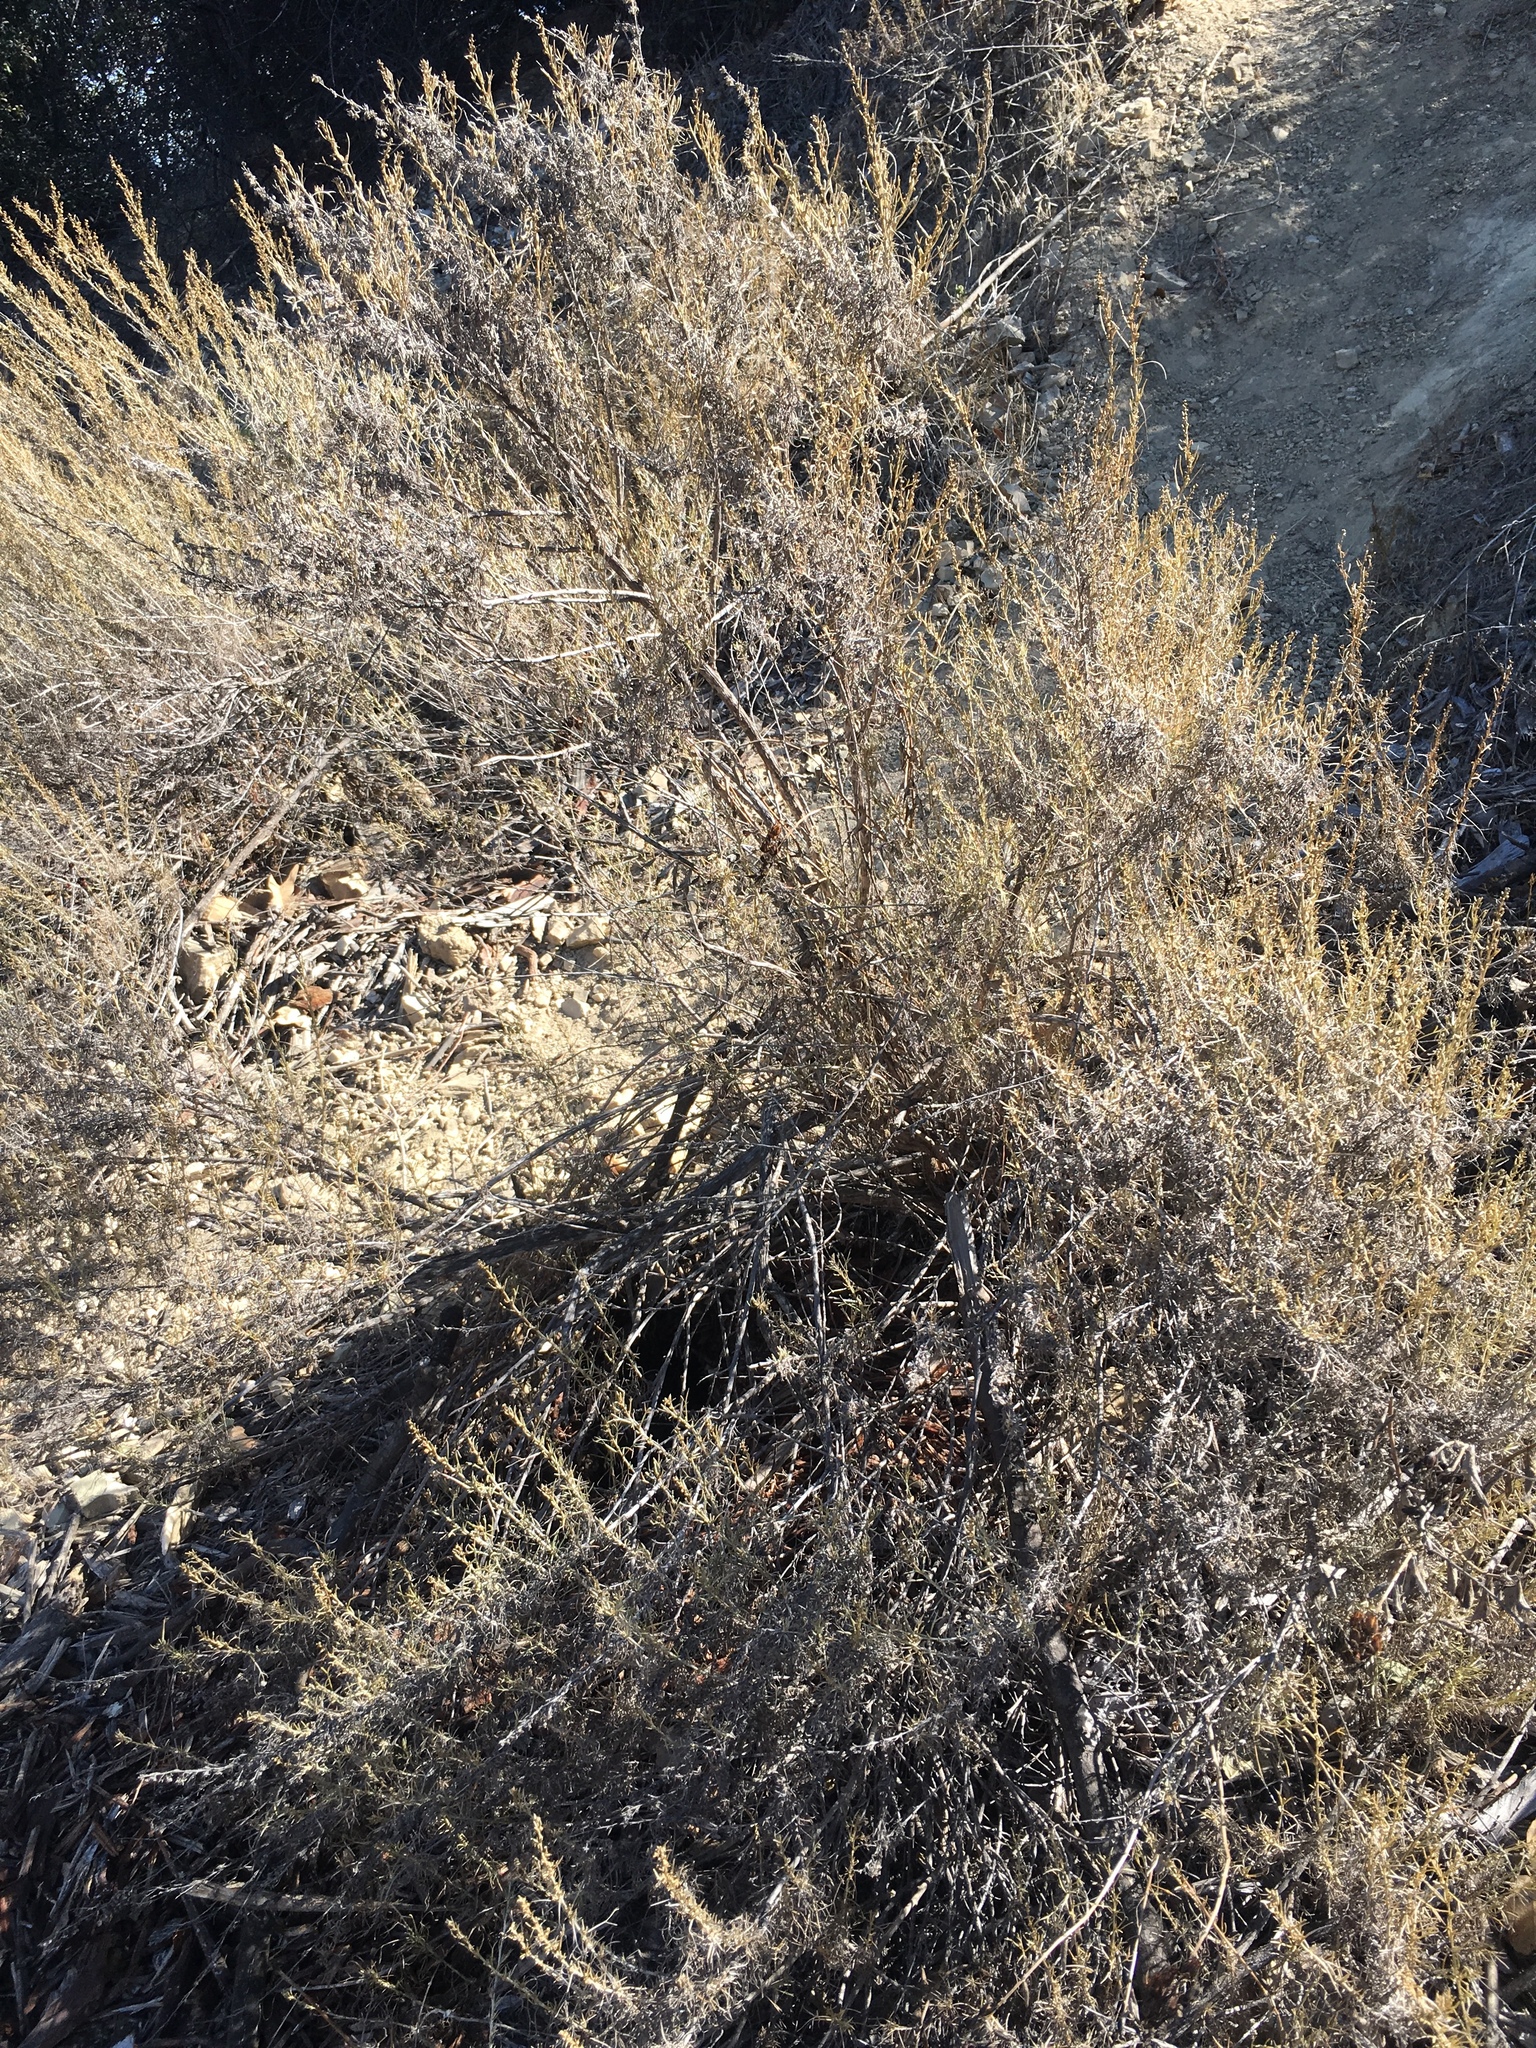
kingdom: Plantae
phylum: Tracheophyta
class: Magnoliopsida
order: Asterales
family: Asteraceae
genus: Artemisia
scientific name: Artemisia californica
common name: California sagebrush
